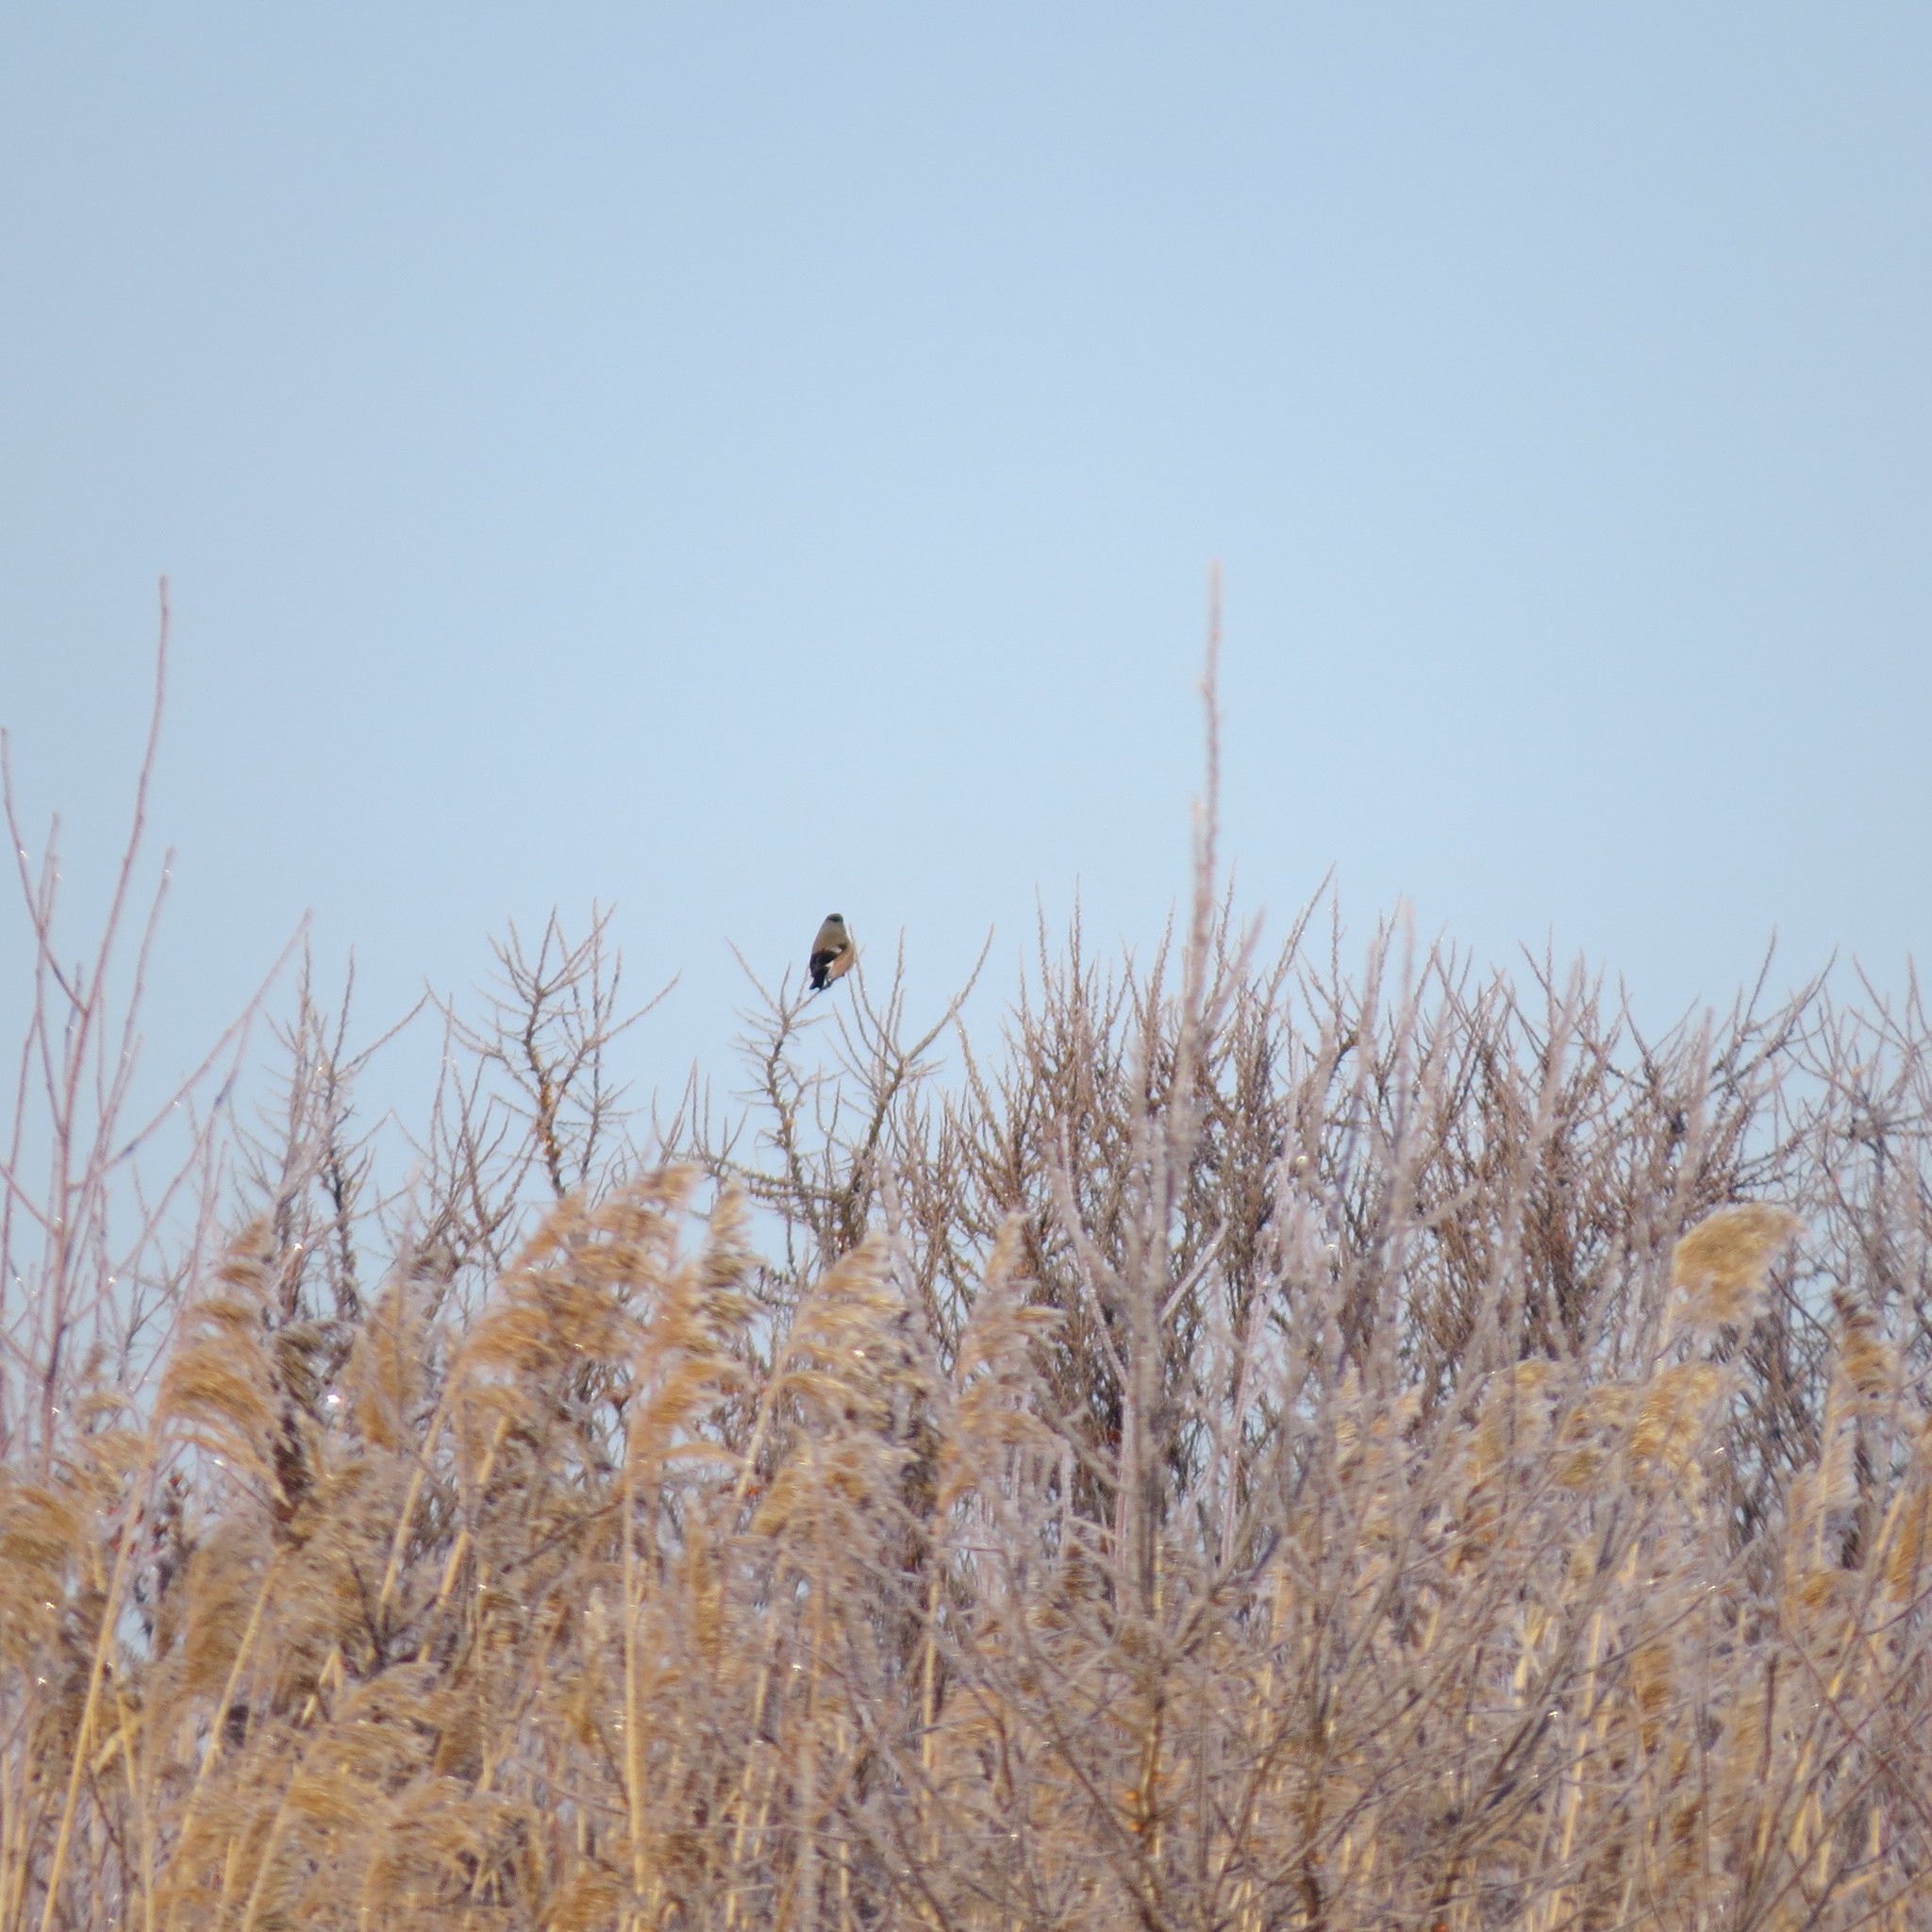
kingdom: Animalia
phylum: Chordata
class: Aves
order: Passeriformes
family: Fringillidae
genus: Pyrrhula
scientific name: Pyrrhula pyrrhula
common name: Eurasian bullfinch
